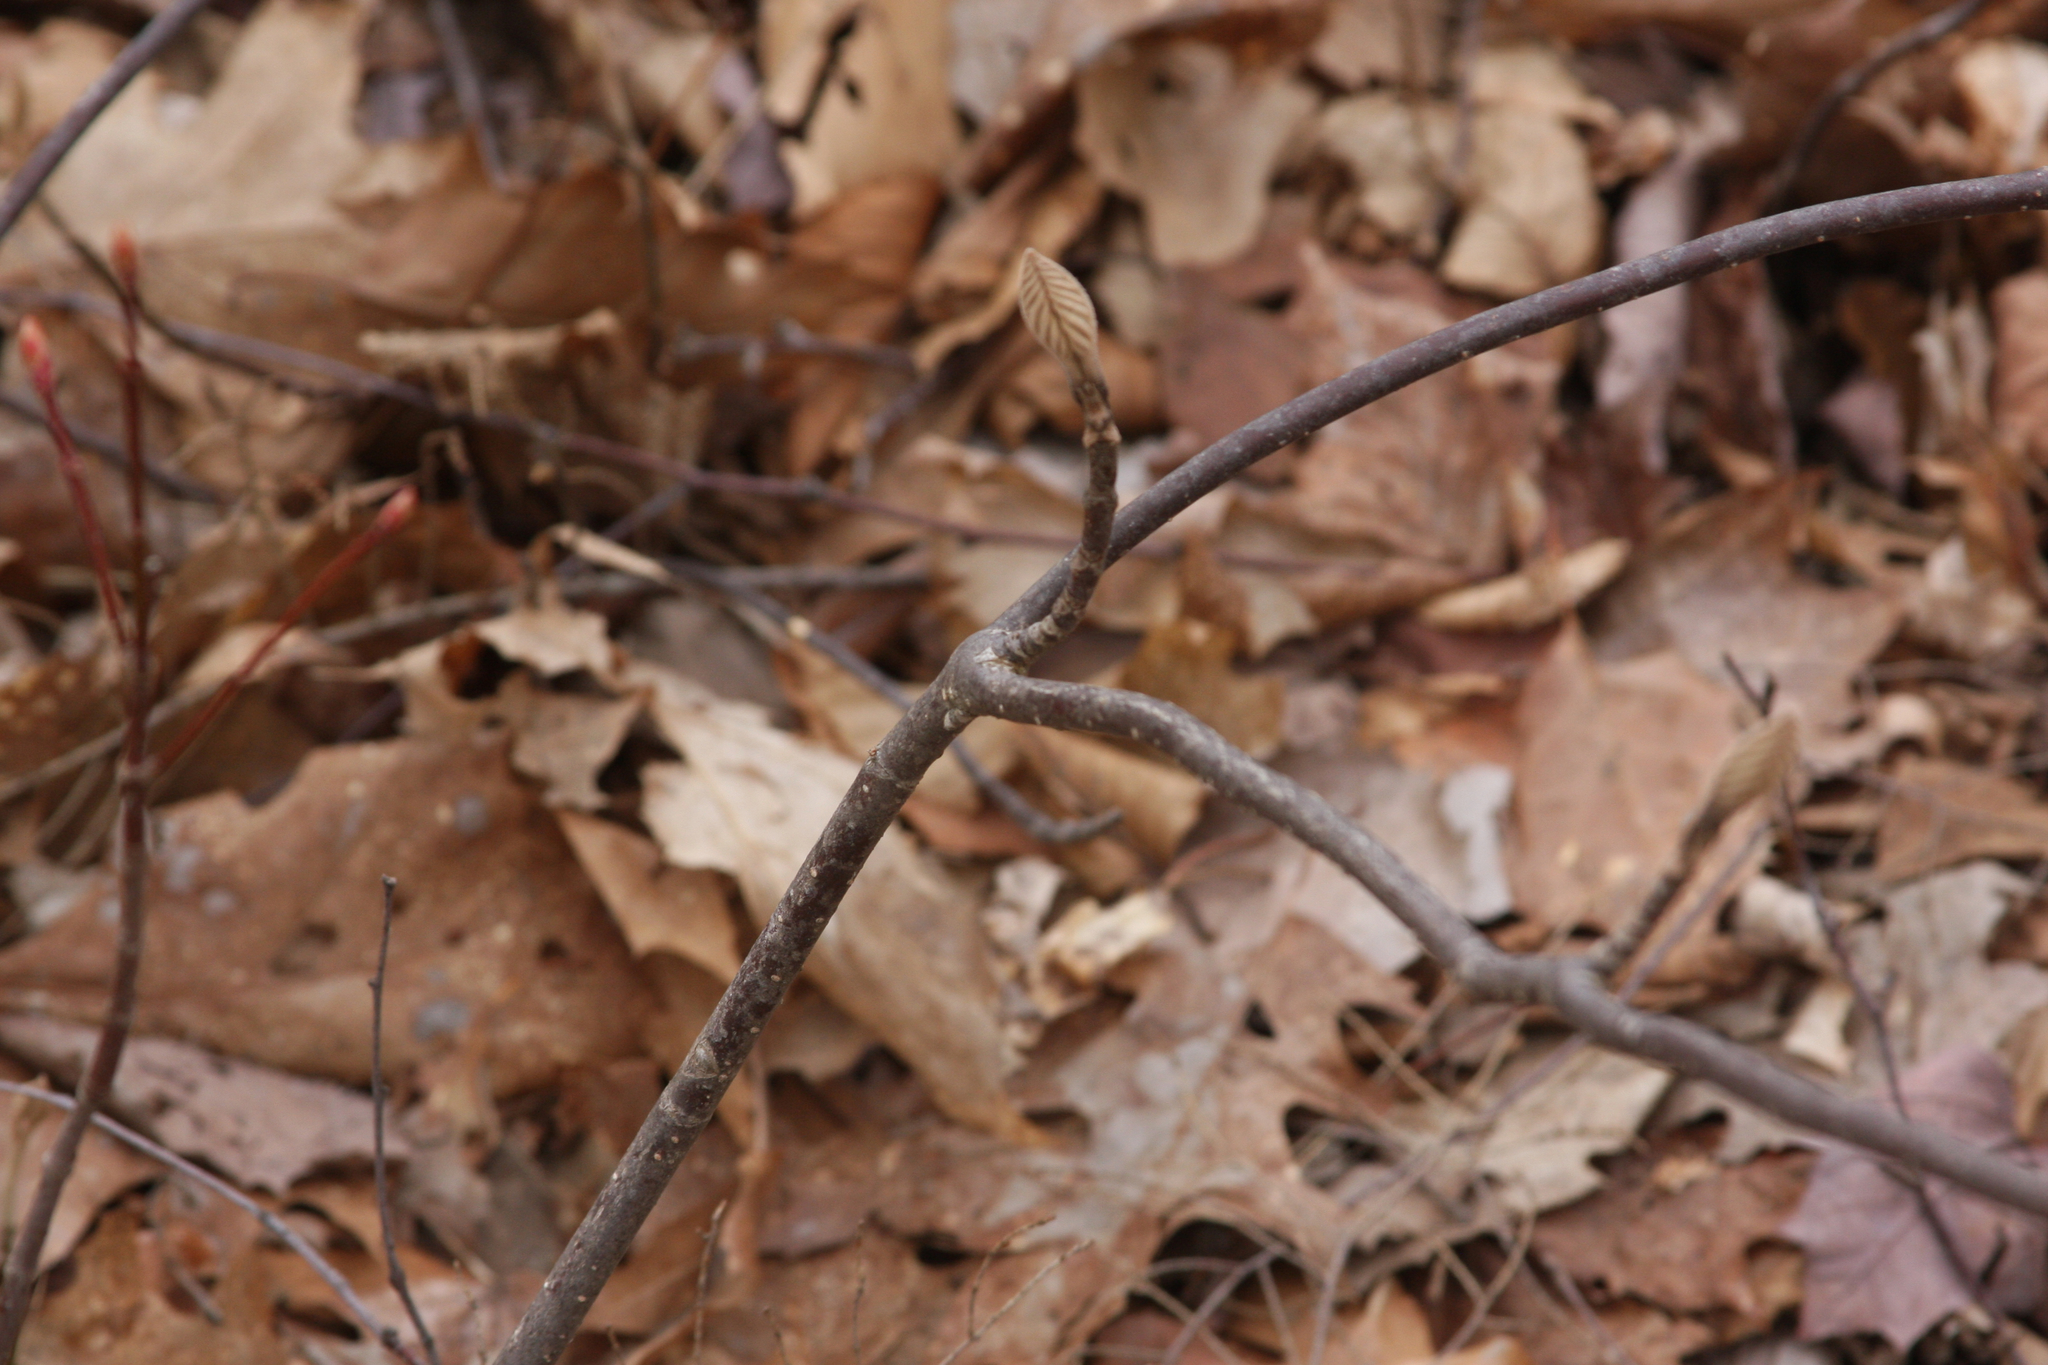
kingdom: Plantae
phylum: Tracheophyta
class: Magnoliopsida
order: Dipsacales
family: Viburnaceae
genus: Viburnum
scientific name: Viburnum lantanoides
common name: Hobblebush
